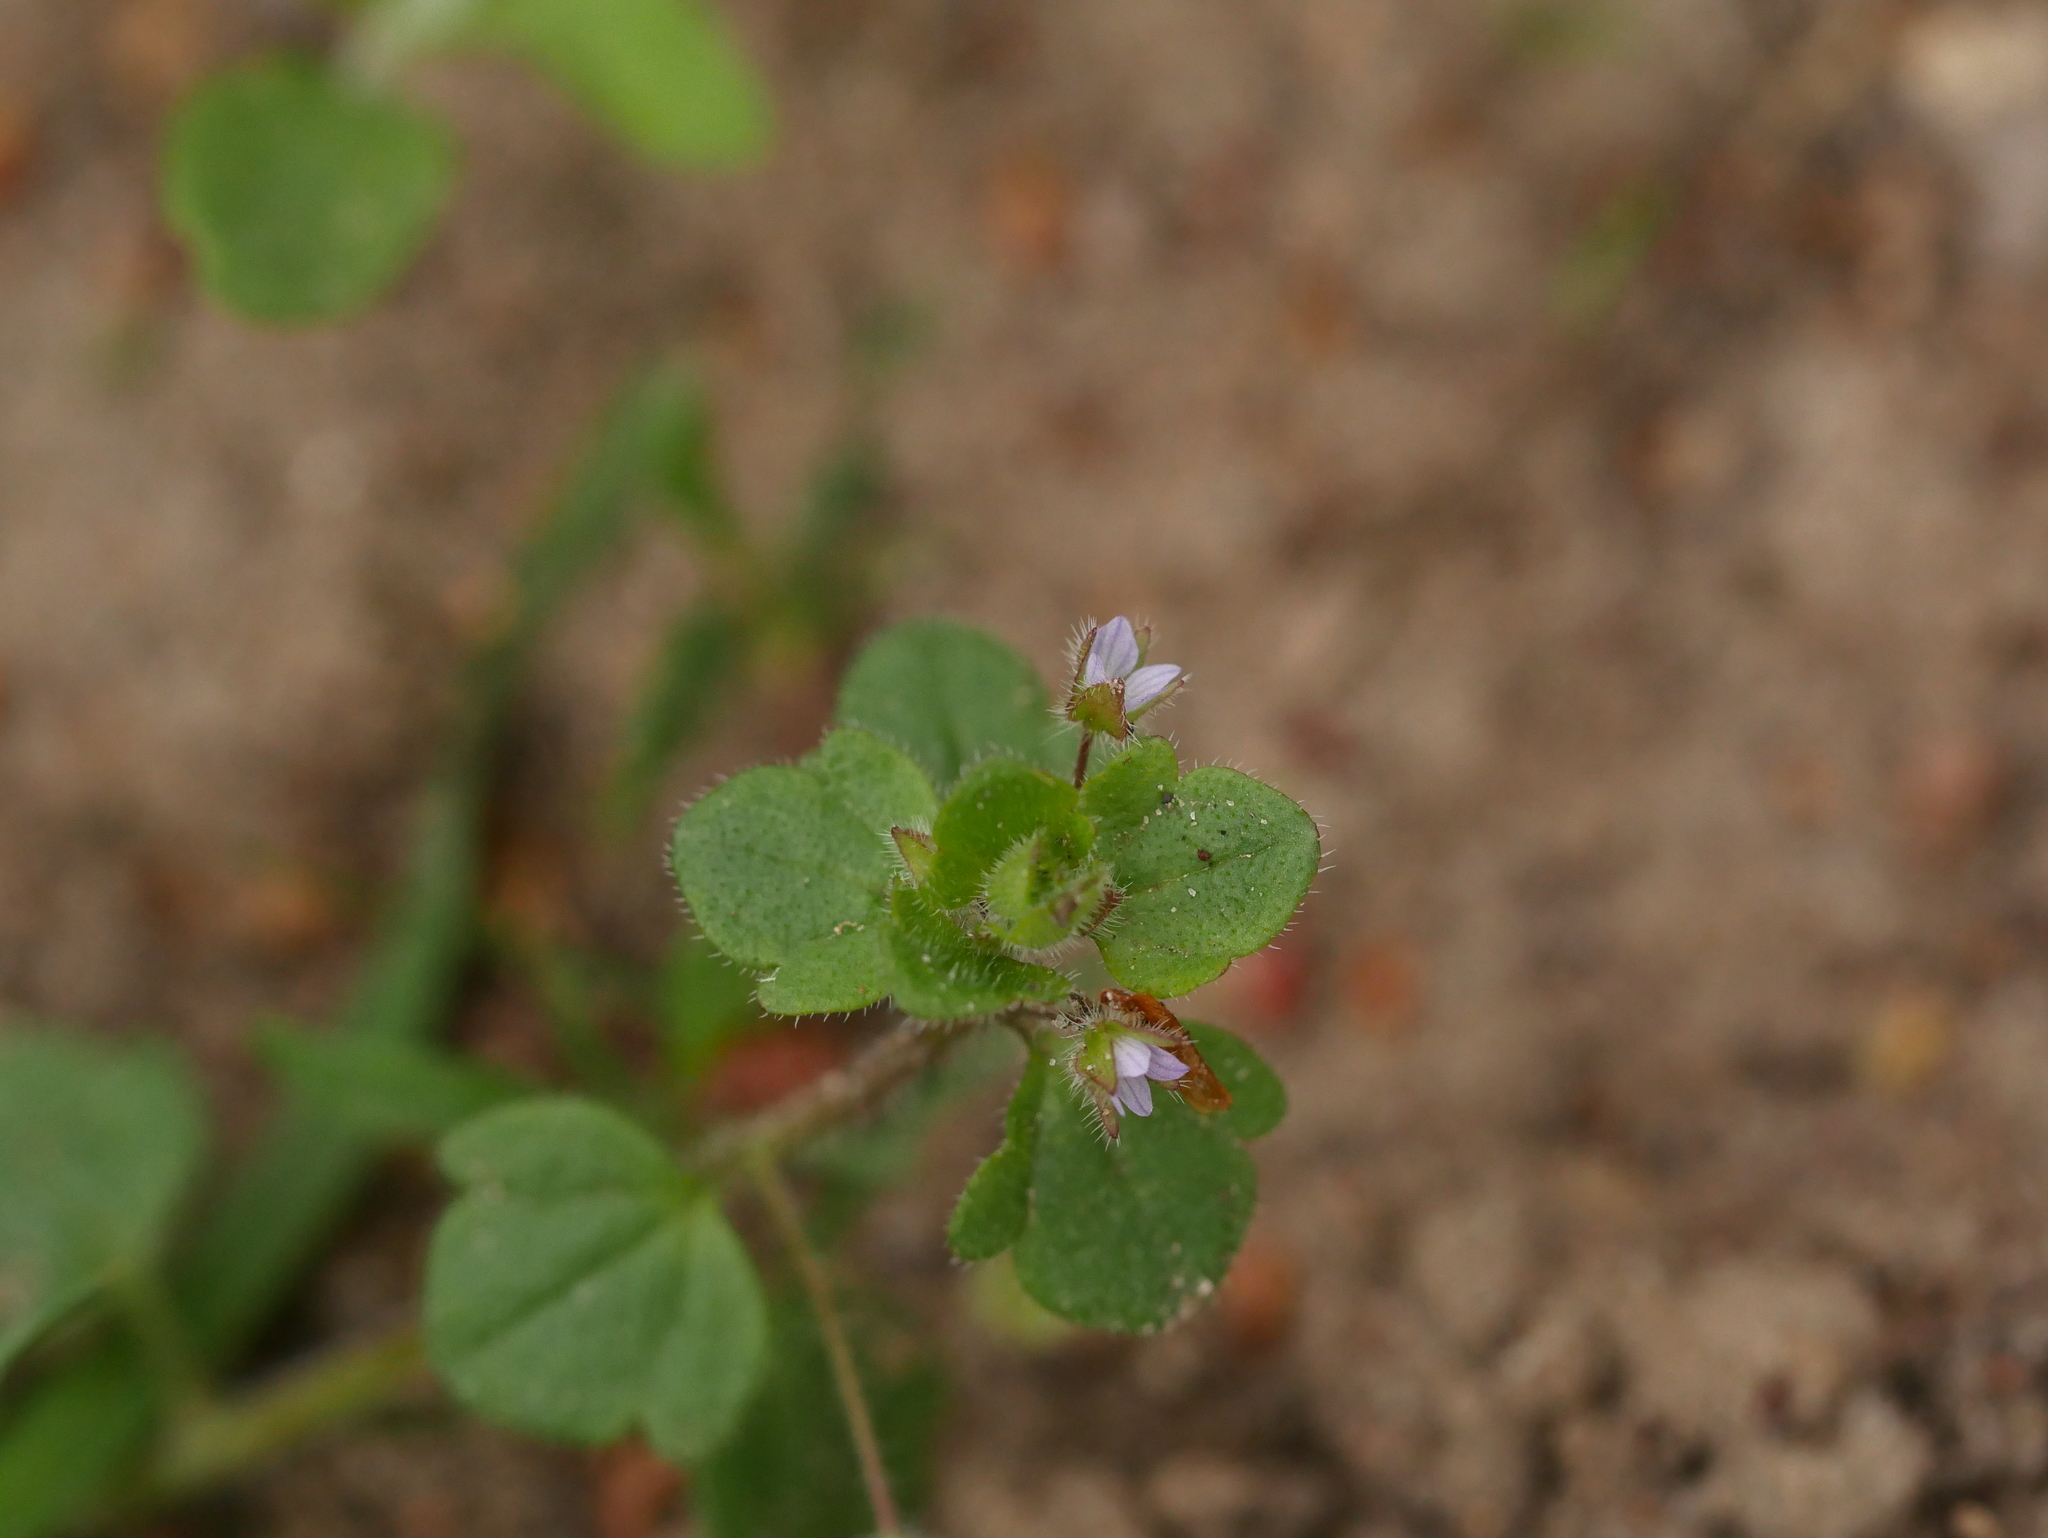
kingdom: Plantae
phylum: Tracheophyta
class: Magnoliopsida
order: Lamiales
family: Plantaginaceae
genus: Veronica
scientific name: Veronica sublobata
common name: False ivy-leaved speedwell
